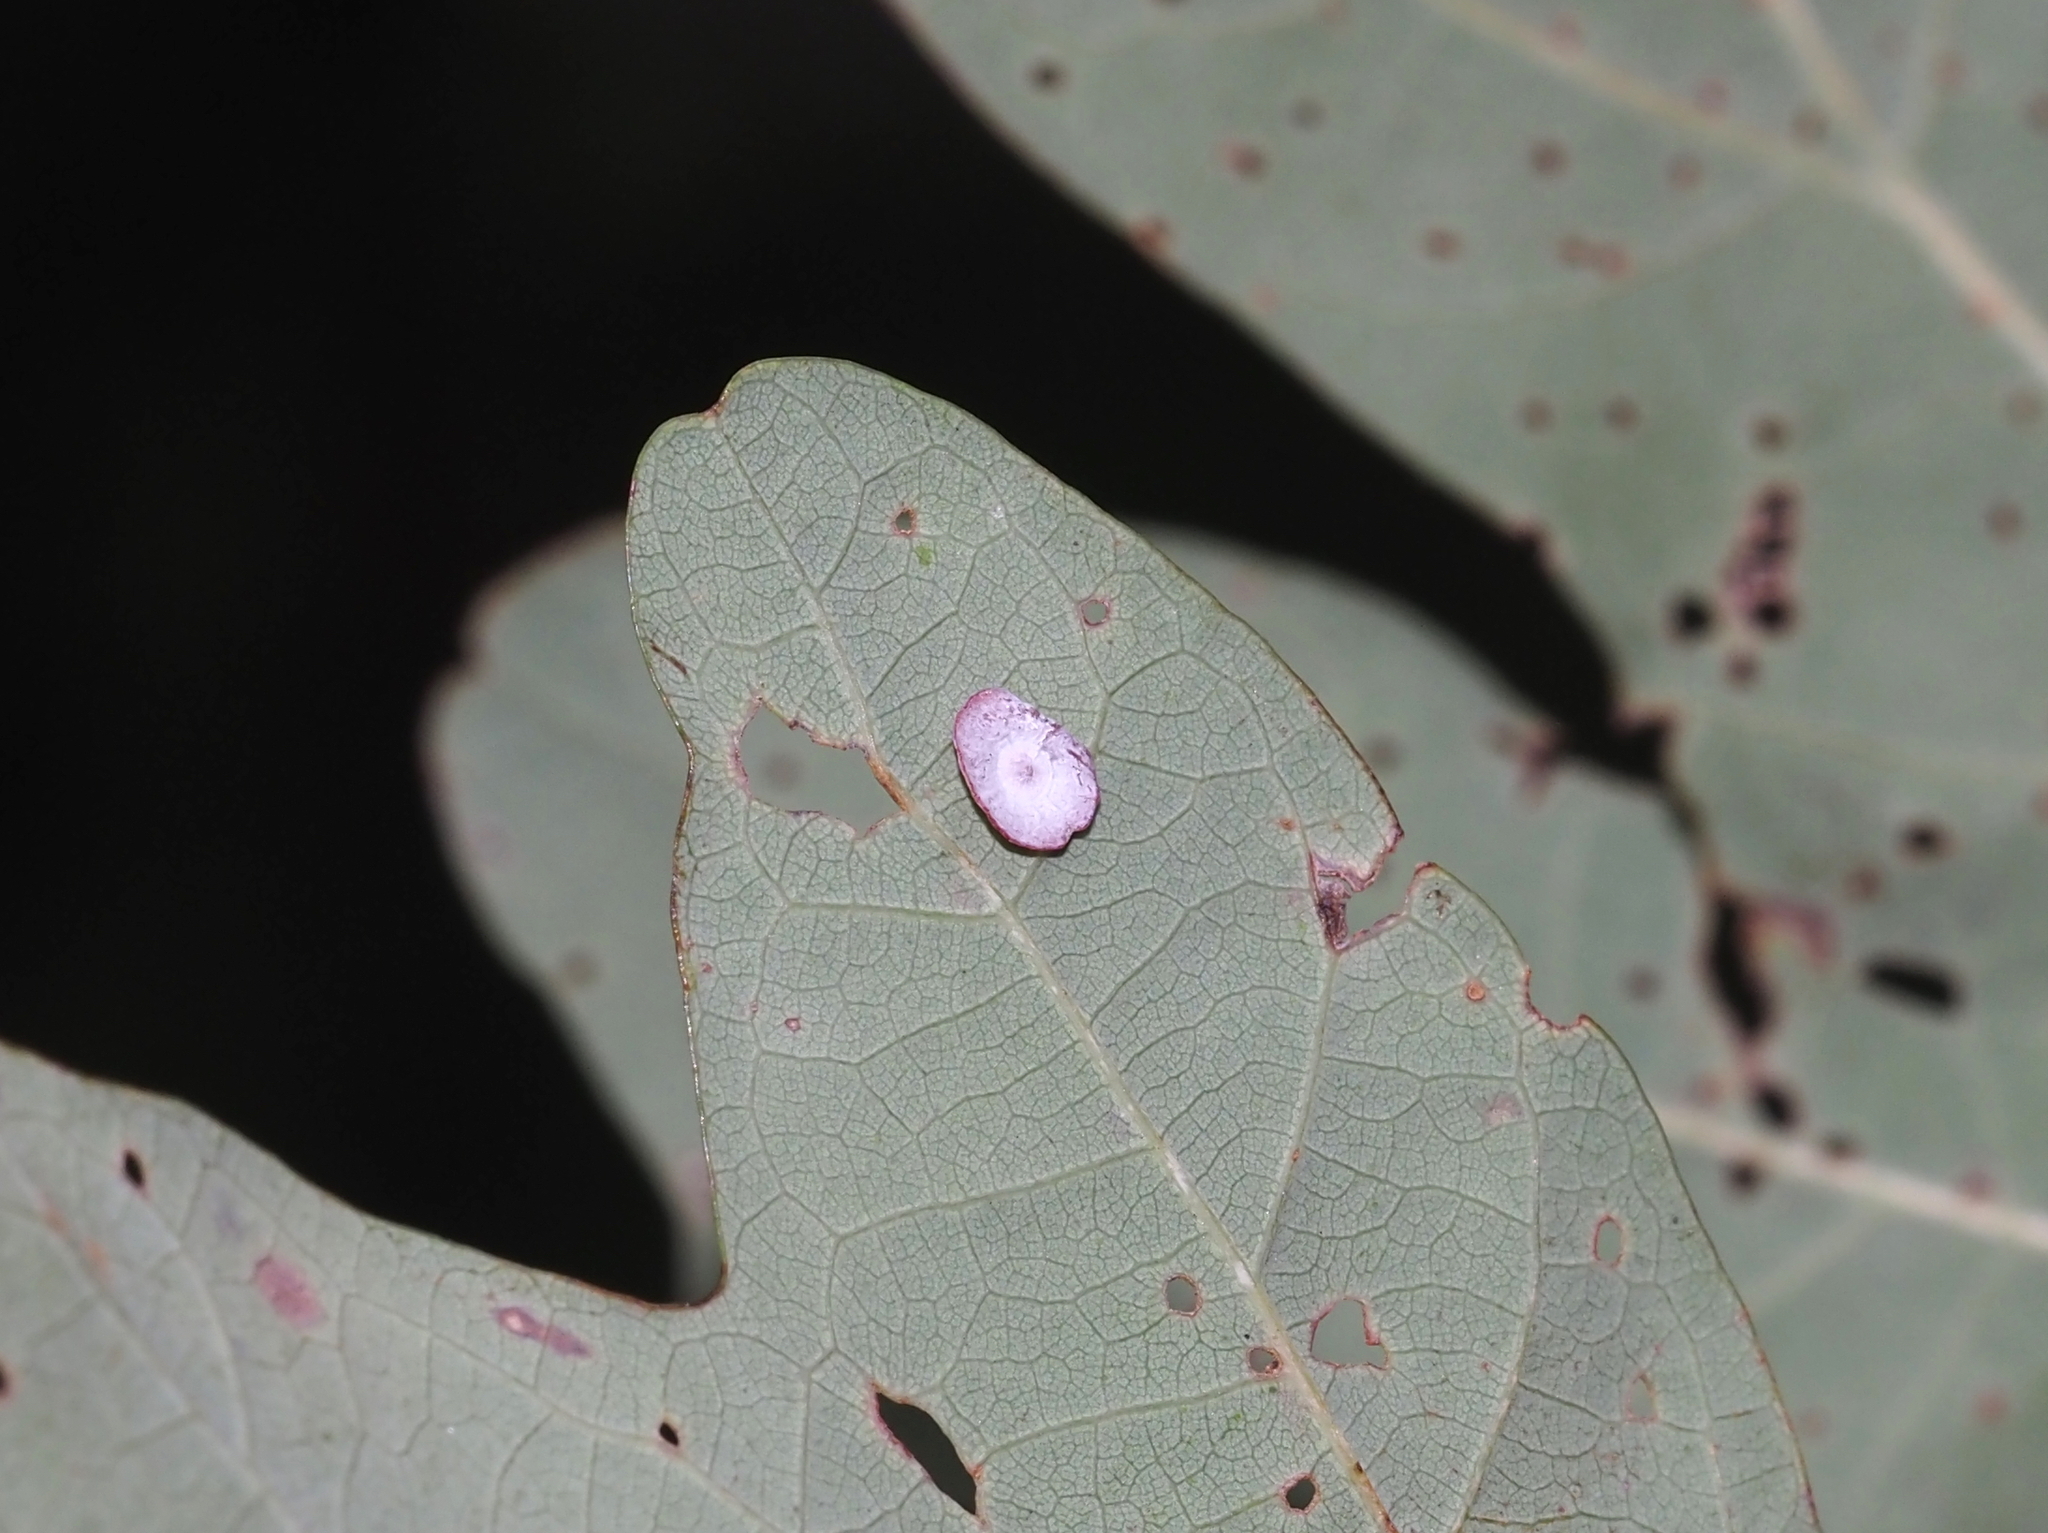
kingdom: Animalia
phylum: Arthropoda
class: Insecta
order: Hymenoptera
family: Cynipidae
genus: Phylloteras
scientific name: Phylloteras poculum
